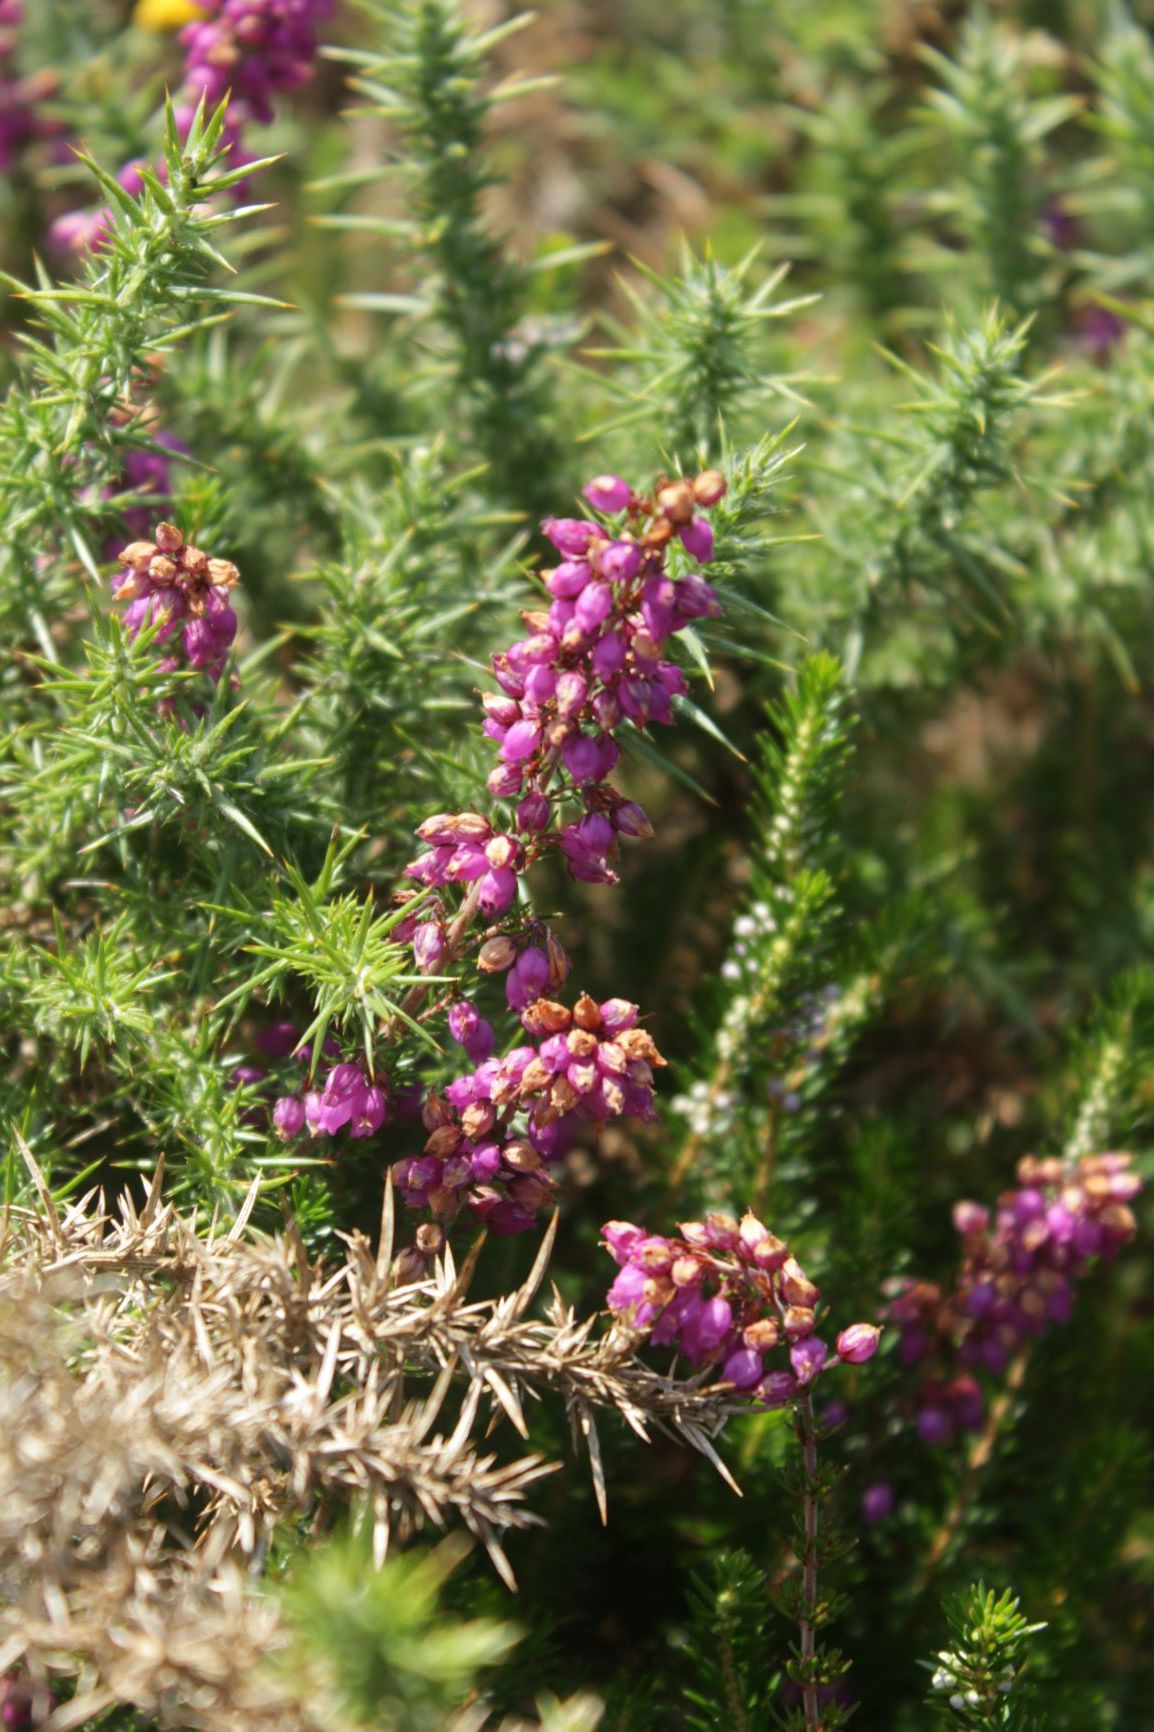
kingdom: Plantae
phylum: Tracheophyta
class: Magnoliopsida
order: Ericales
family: Ericaceae
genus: Erica
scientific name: Erica cinerea
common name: Bell heather
